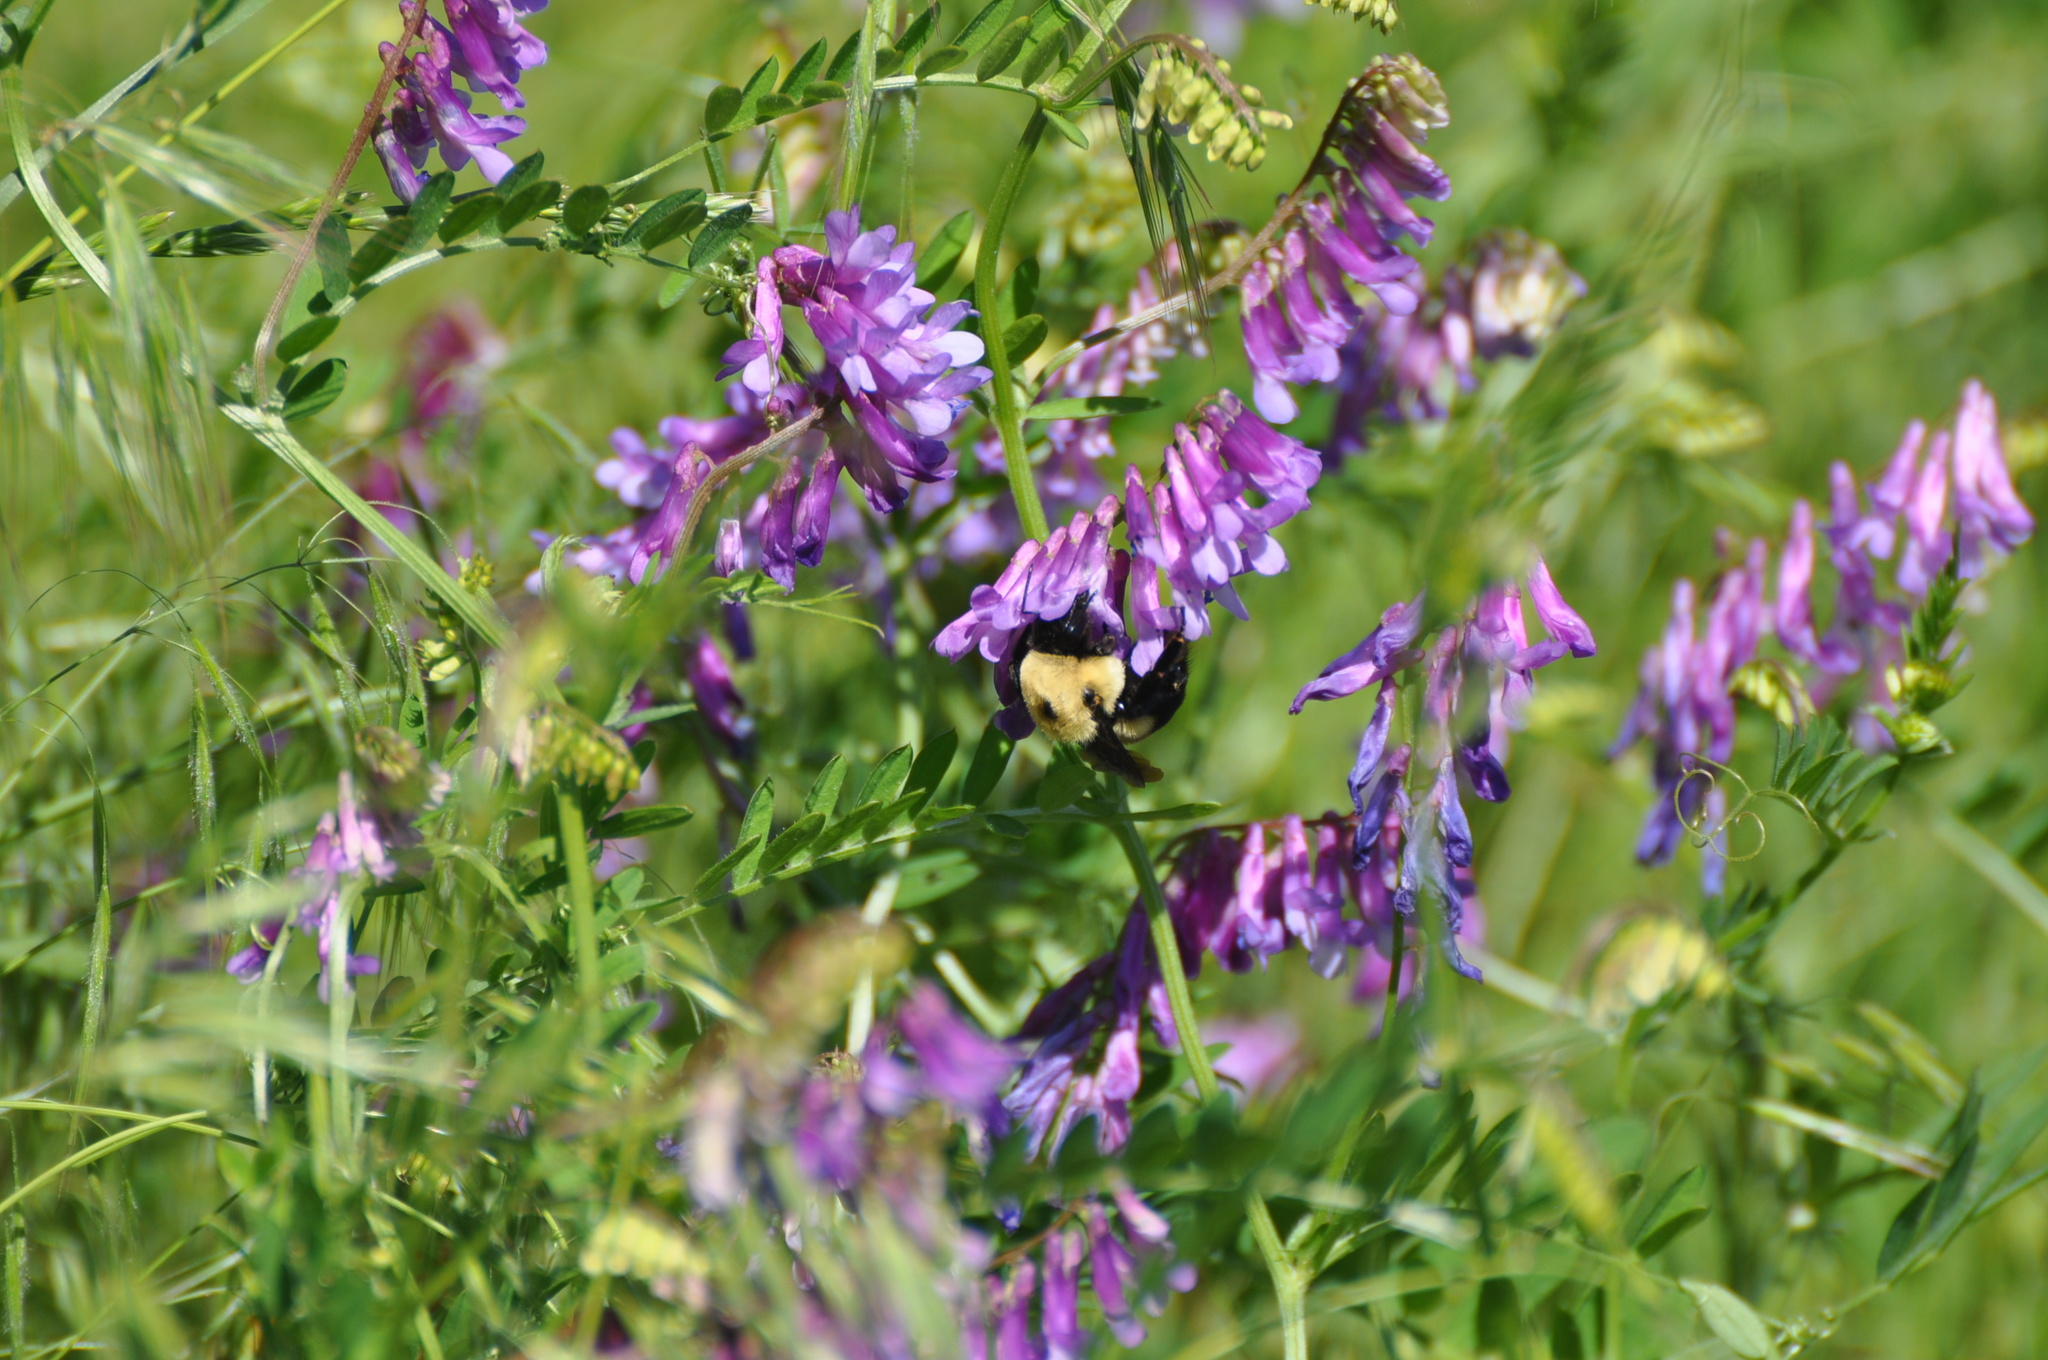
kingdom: Animalia
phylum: Arthropoda
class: Insecta
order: Hymenoptera
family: Apidae
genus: Bombus
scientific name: Bombus griseocollis
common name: Brown-belted bumble bee
